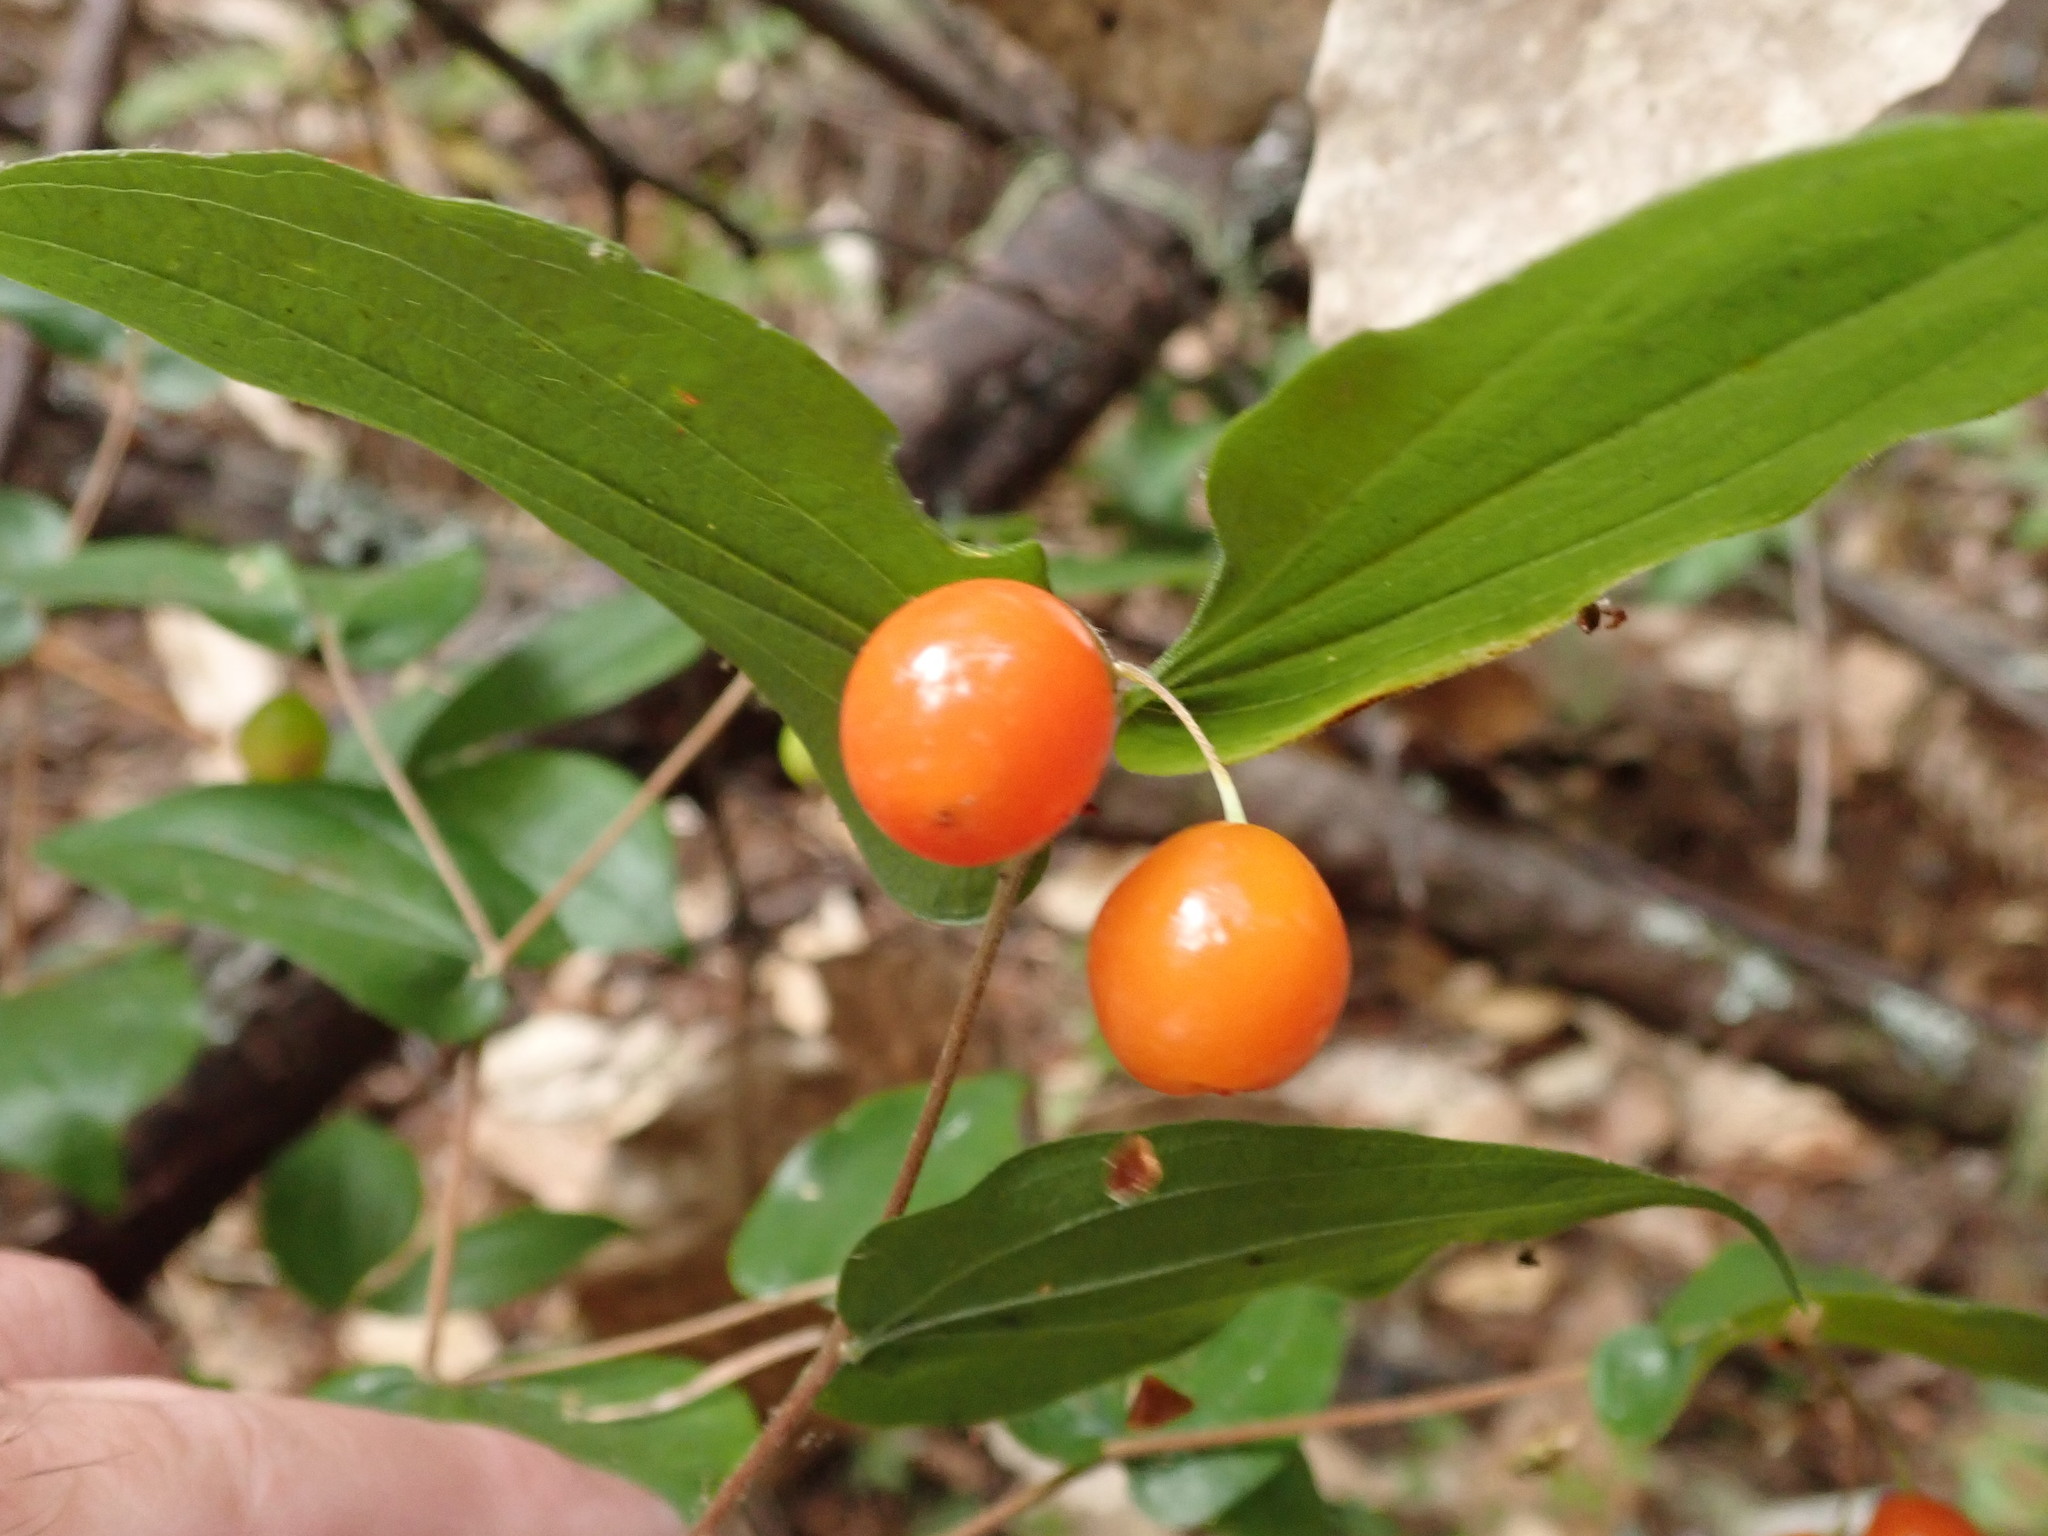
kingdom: Plantae
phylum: Tracheophyta
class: Liliopsida
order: Liliales
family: Liliaceae
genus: Prosartes
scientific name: Prosartes hookeri
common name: Fairy-bells
